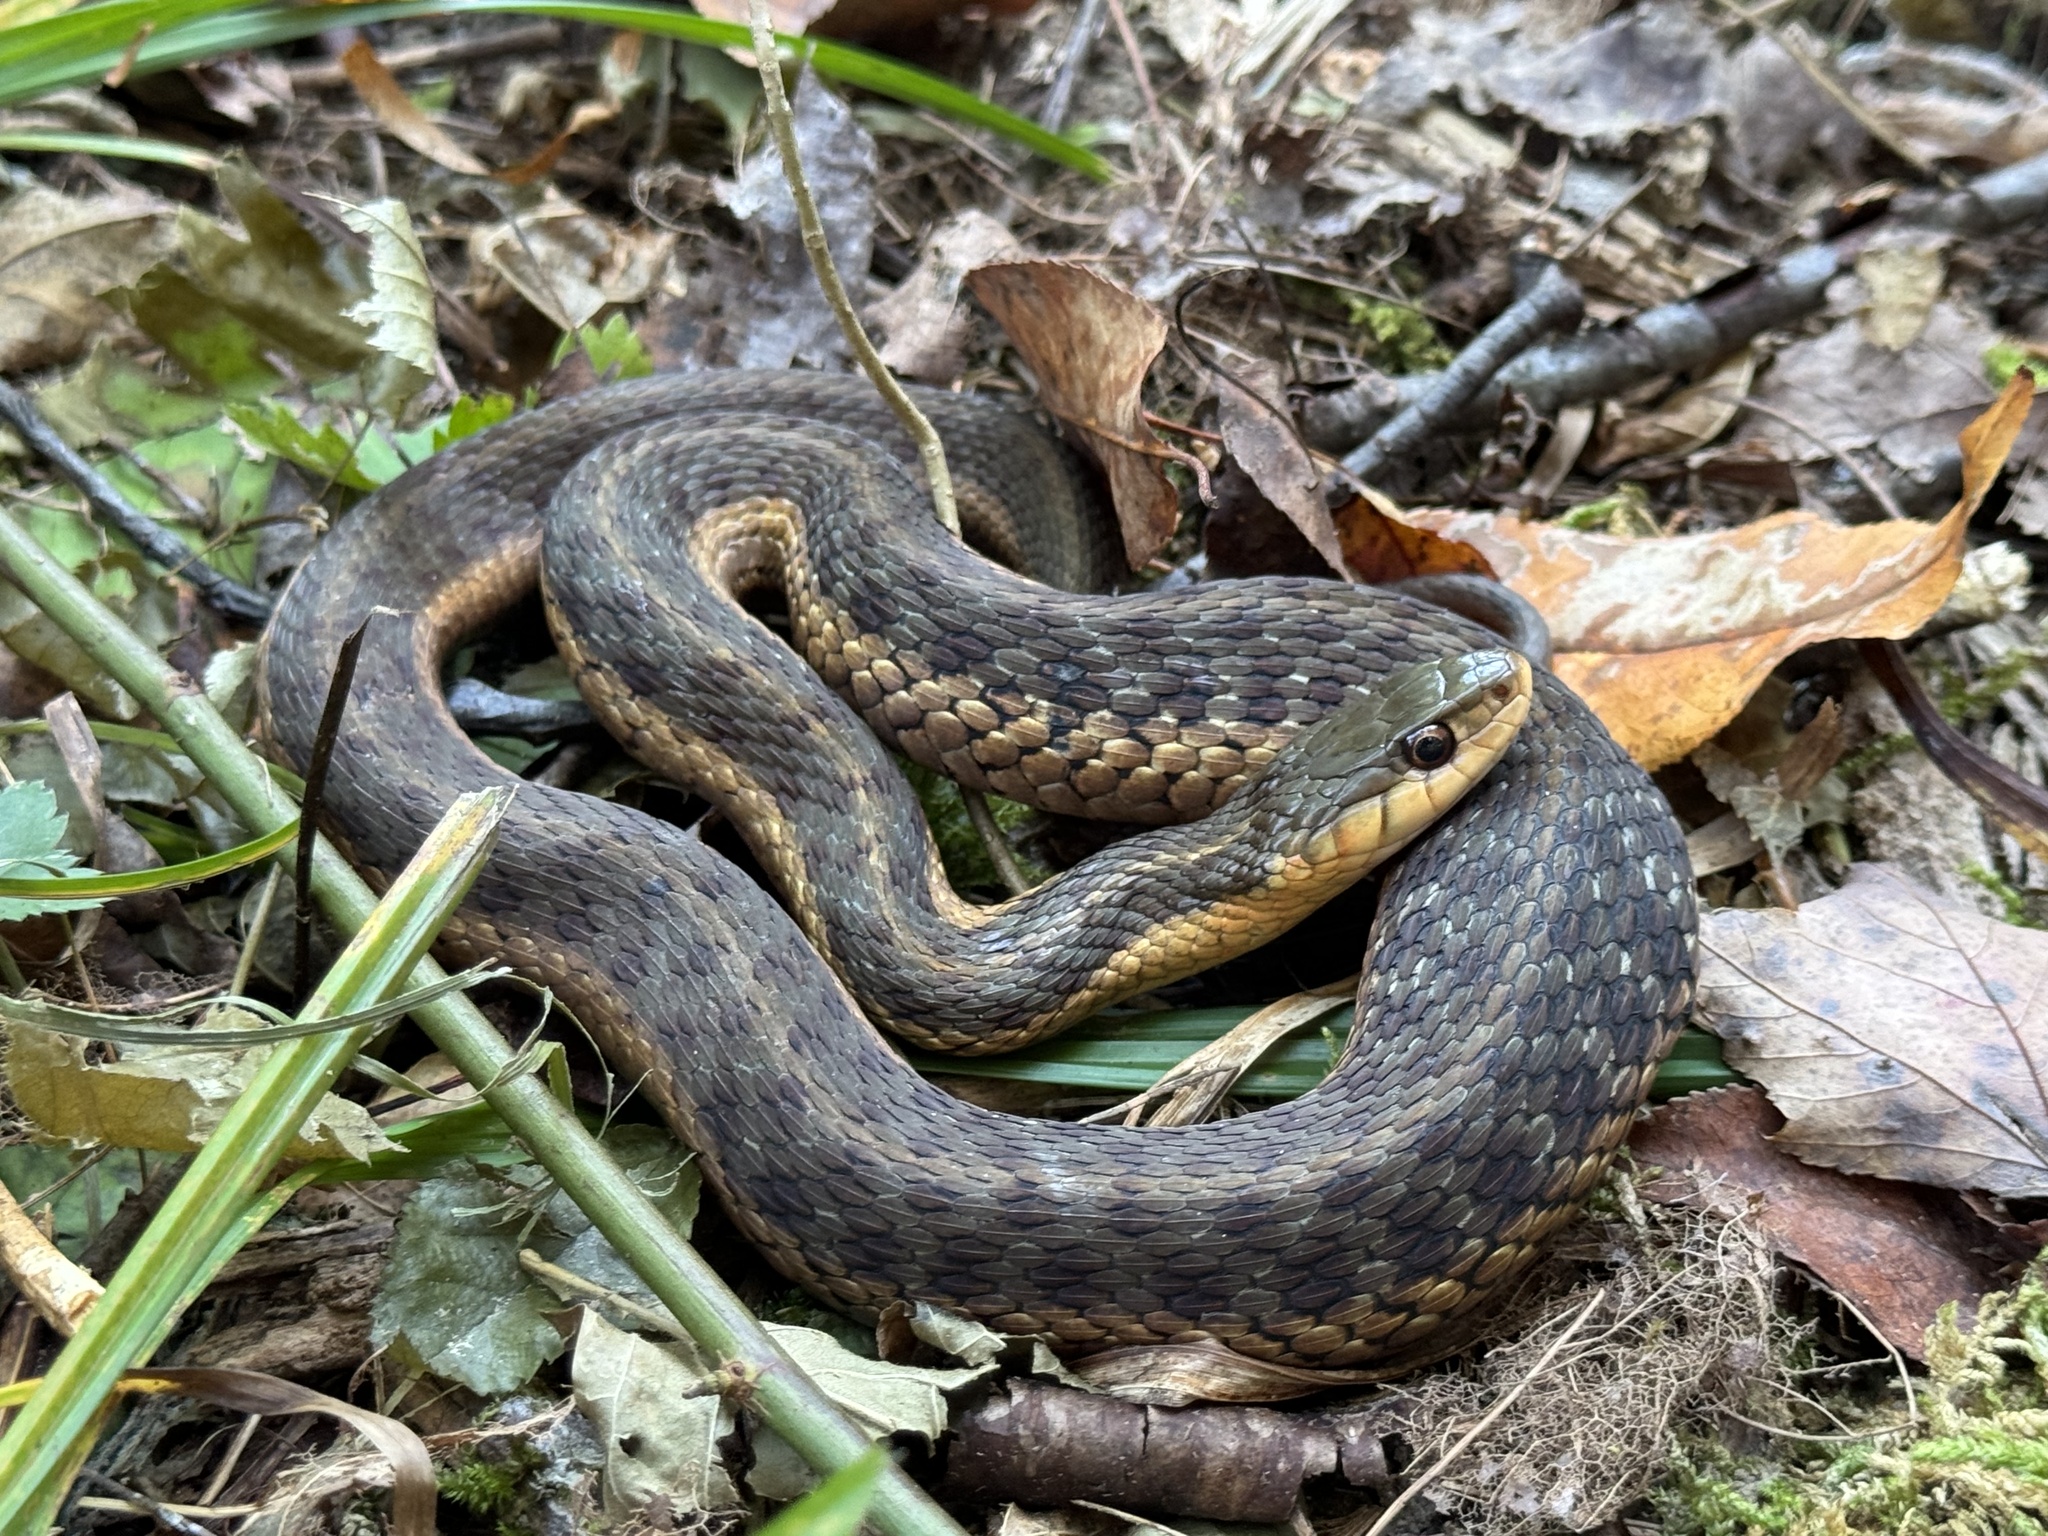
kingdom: Animalia
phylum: Chordata
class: Squamata
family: Colubridae
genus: Thamnophis
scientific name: Thamnophis sirtalis
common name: Common garter snake
